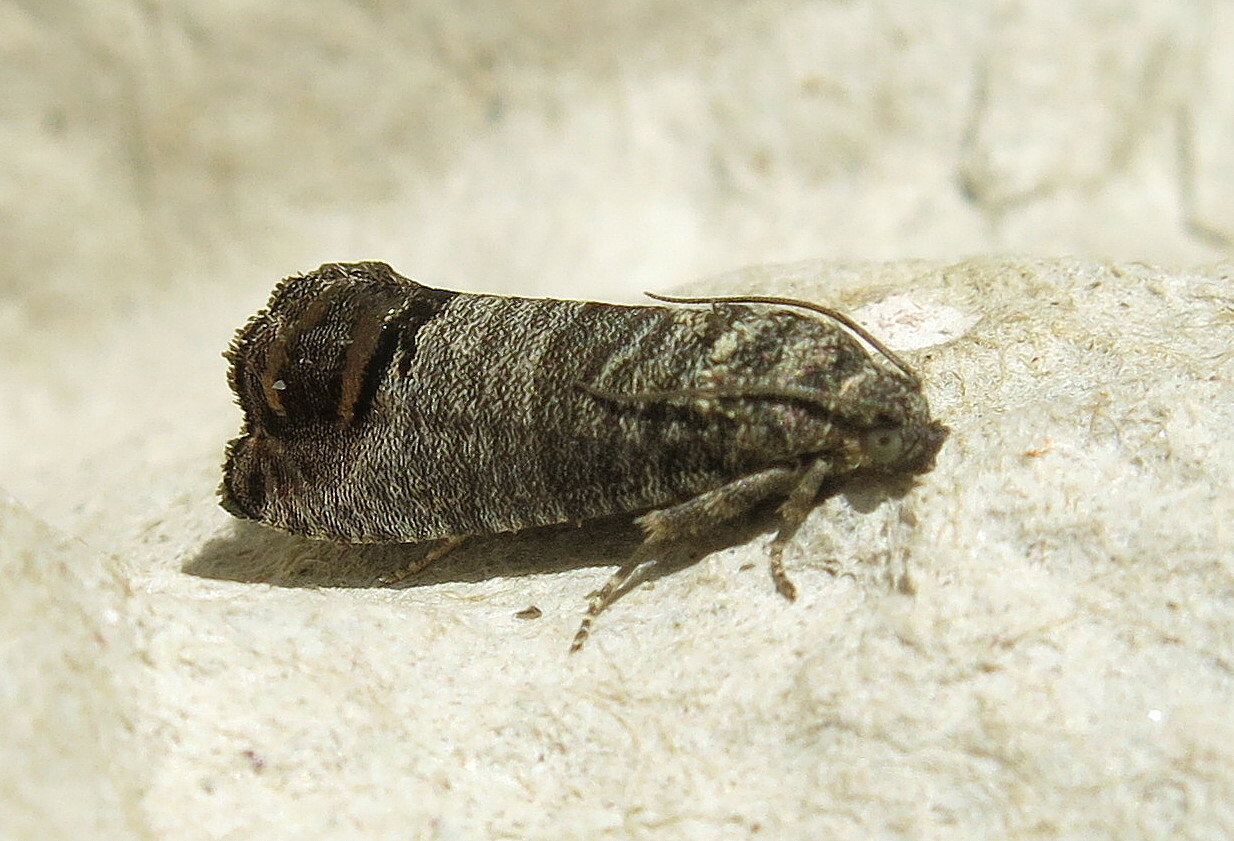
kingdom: Animalia
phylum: Arthropoda
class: Insecta
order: Lepidoptera
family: Tortricidae
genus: Cydia
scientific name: Cydia pomonella
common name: Codling moth
